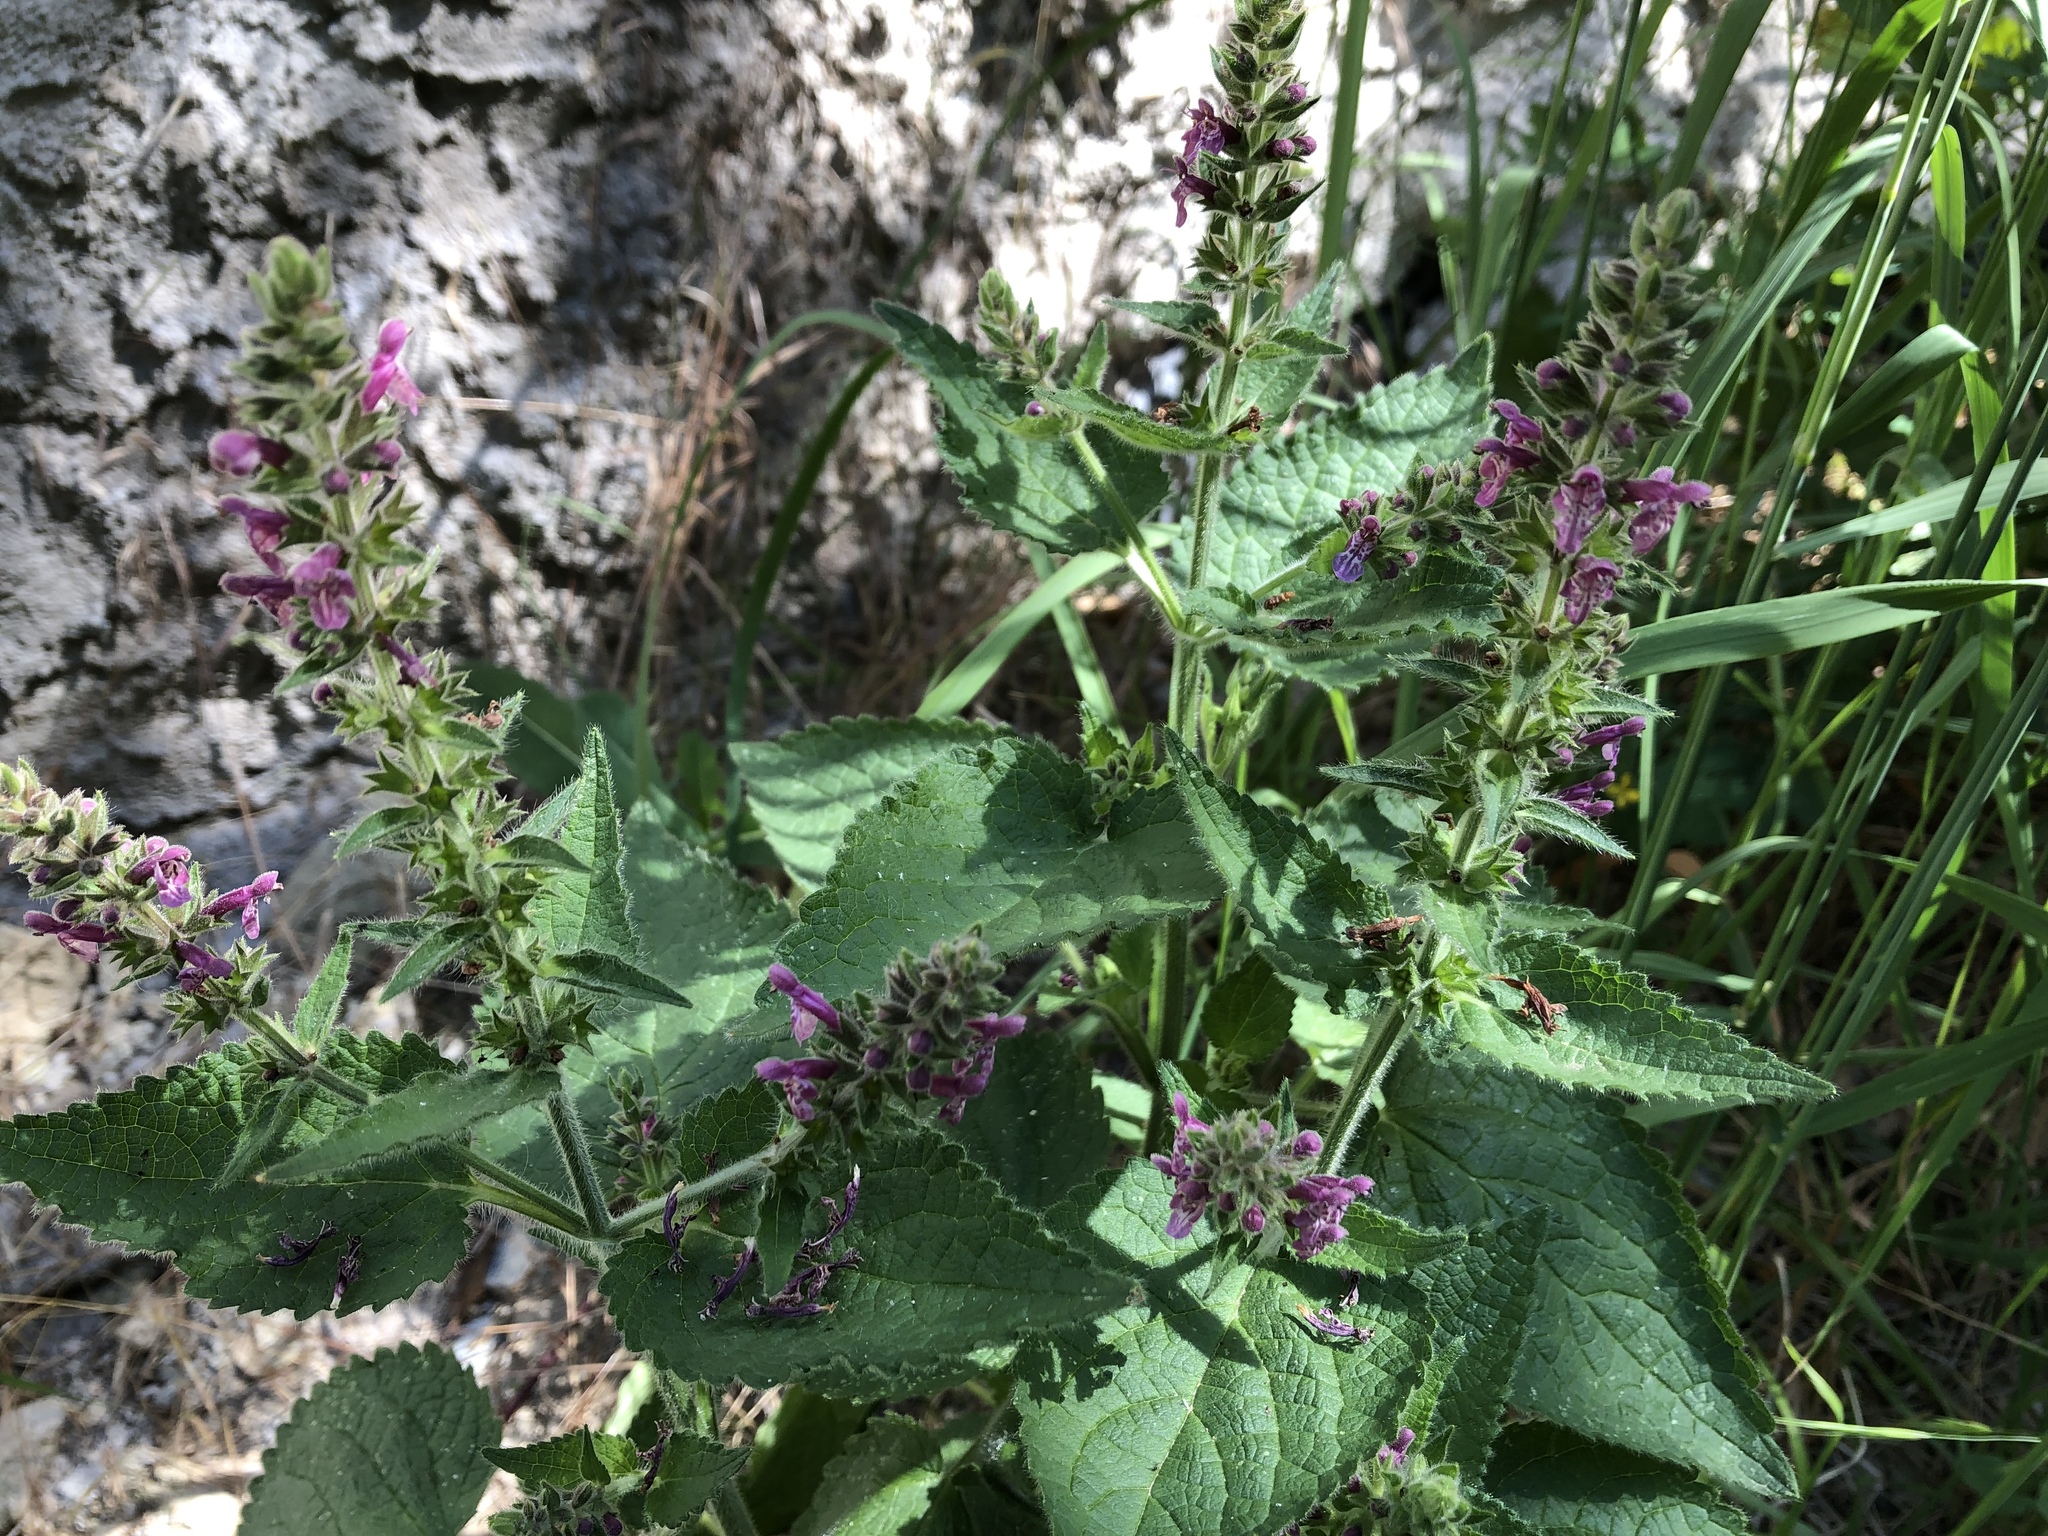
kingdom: Plantae
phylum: Tracheophyta
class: Magnoliopsida
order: Lamiales
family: Lamiaceae
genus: Stachys
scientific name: Stachys sylvatica
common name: Hedge woundwort
